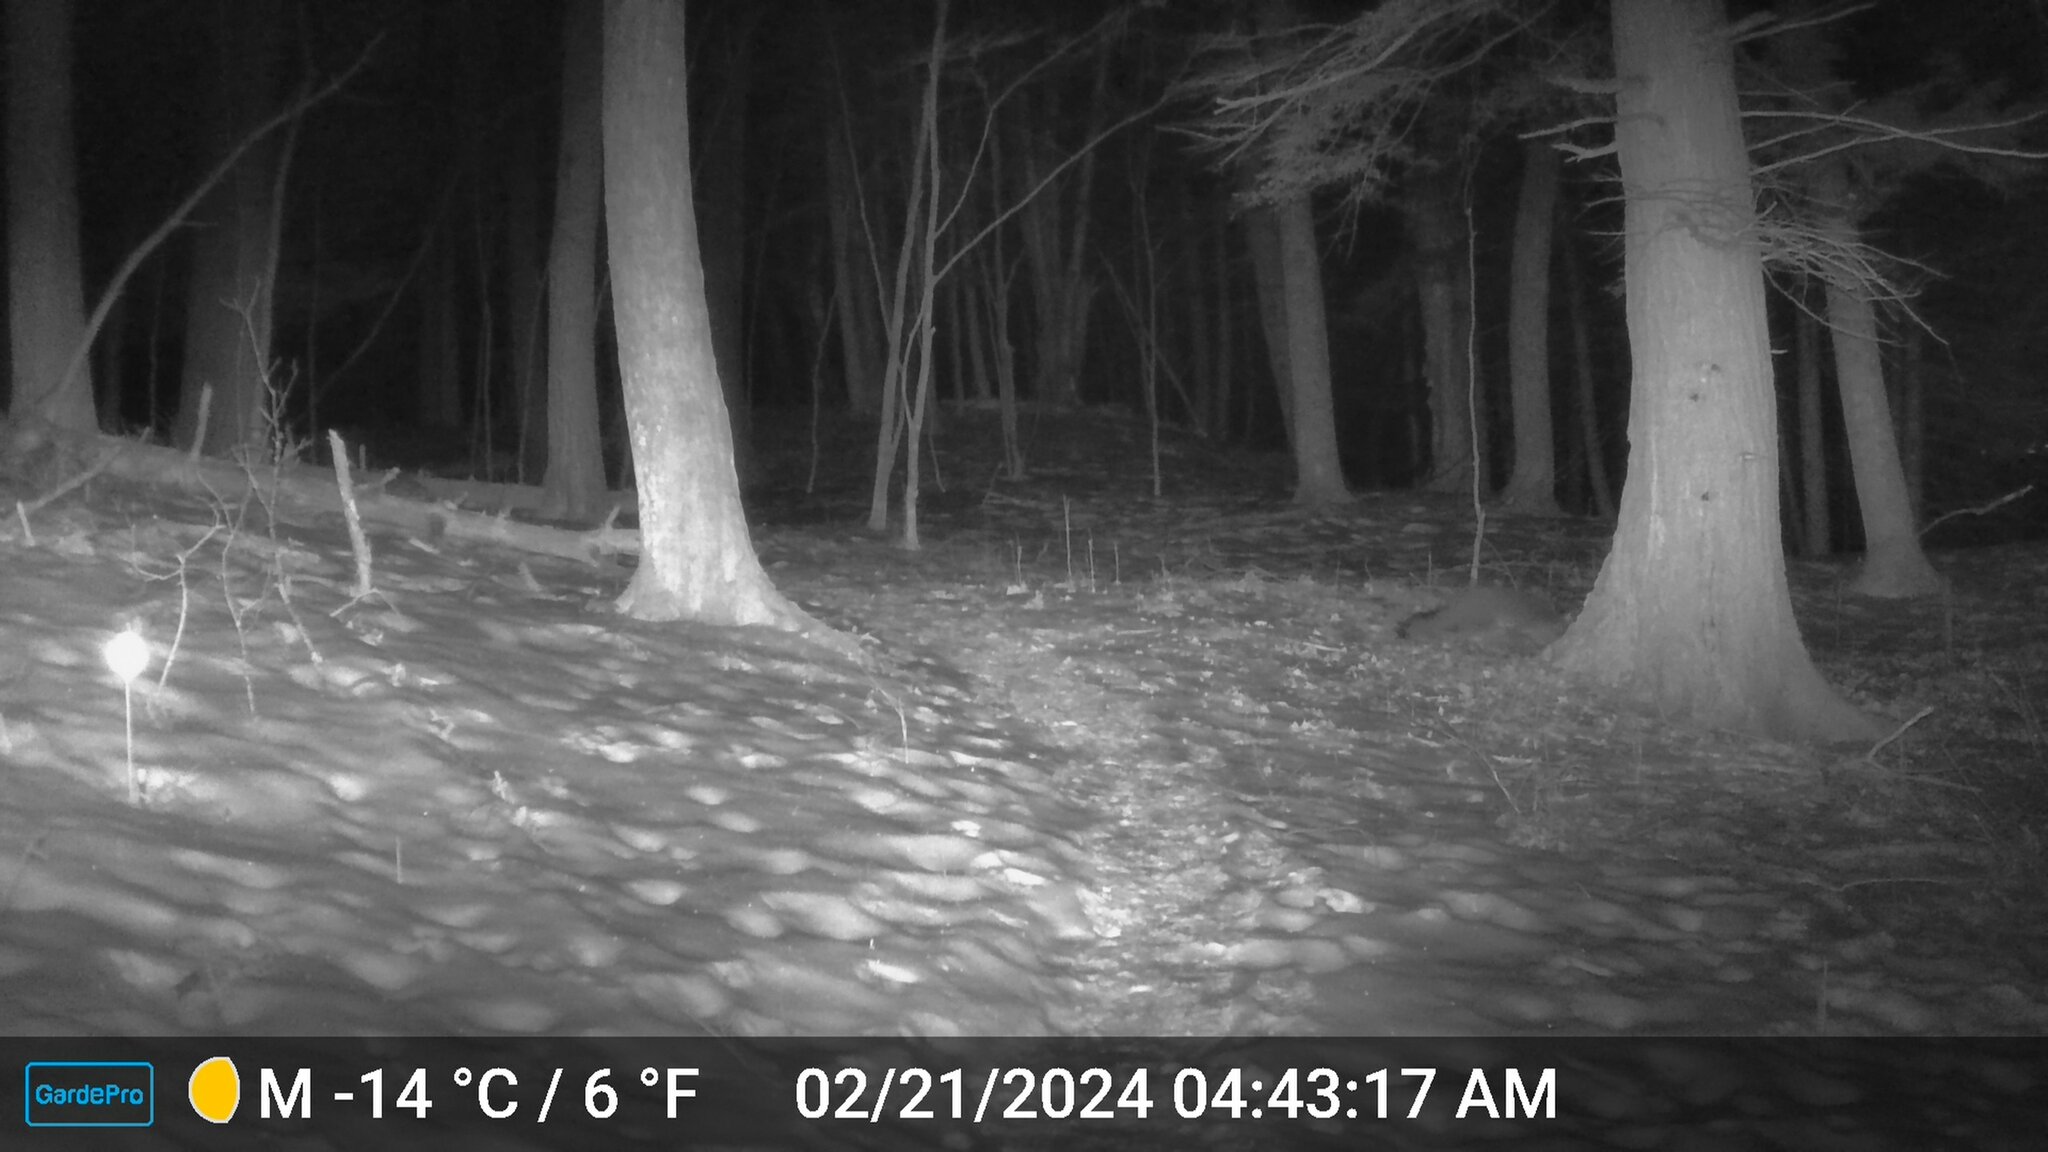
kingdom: Animalia
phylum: Chordata
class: Mammalia
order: Carnivora
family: Canidae
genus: Urocyon
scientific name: Urocyon cinereoargenteus
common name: Gray fox
